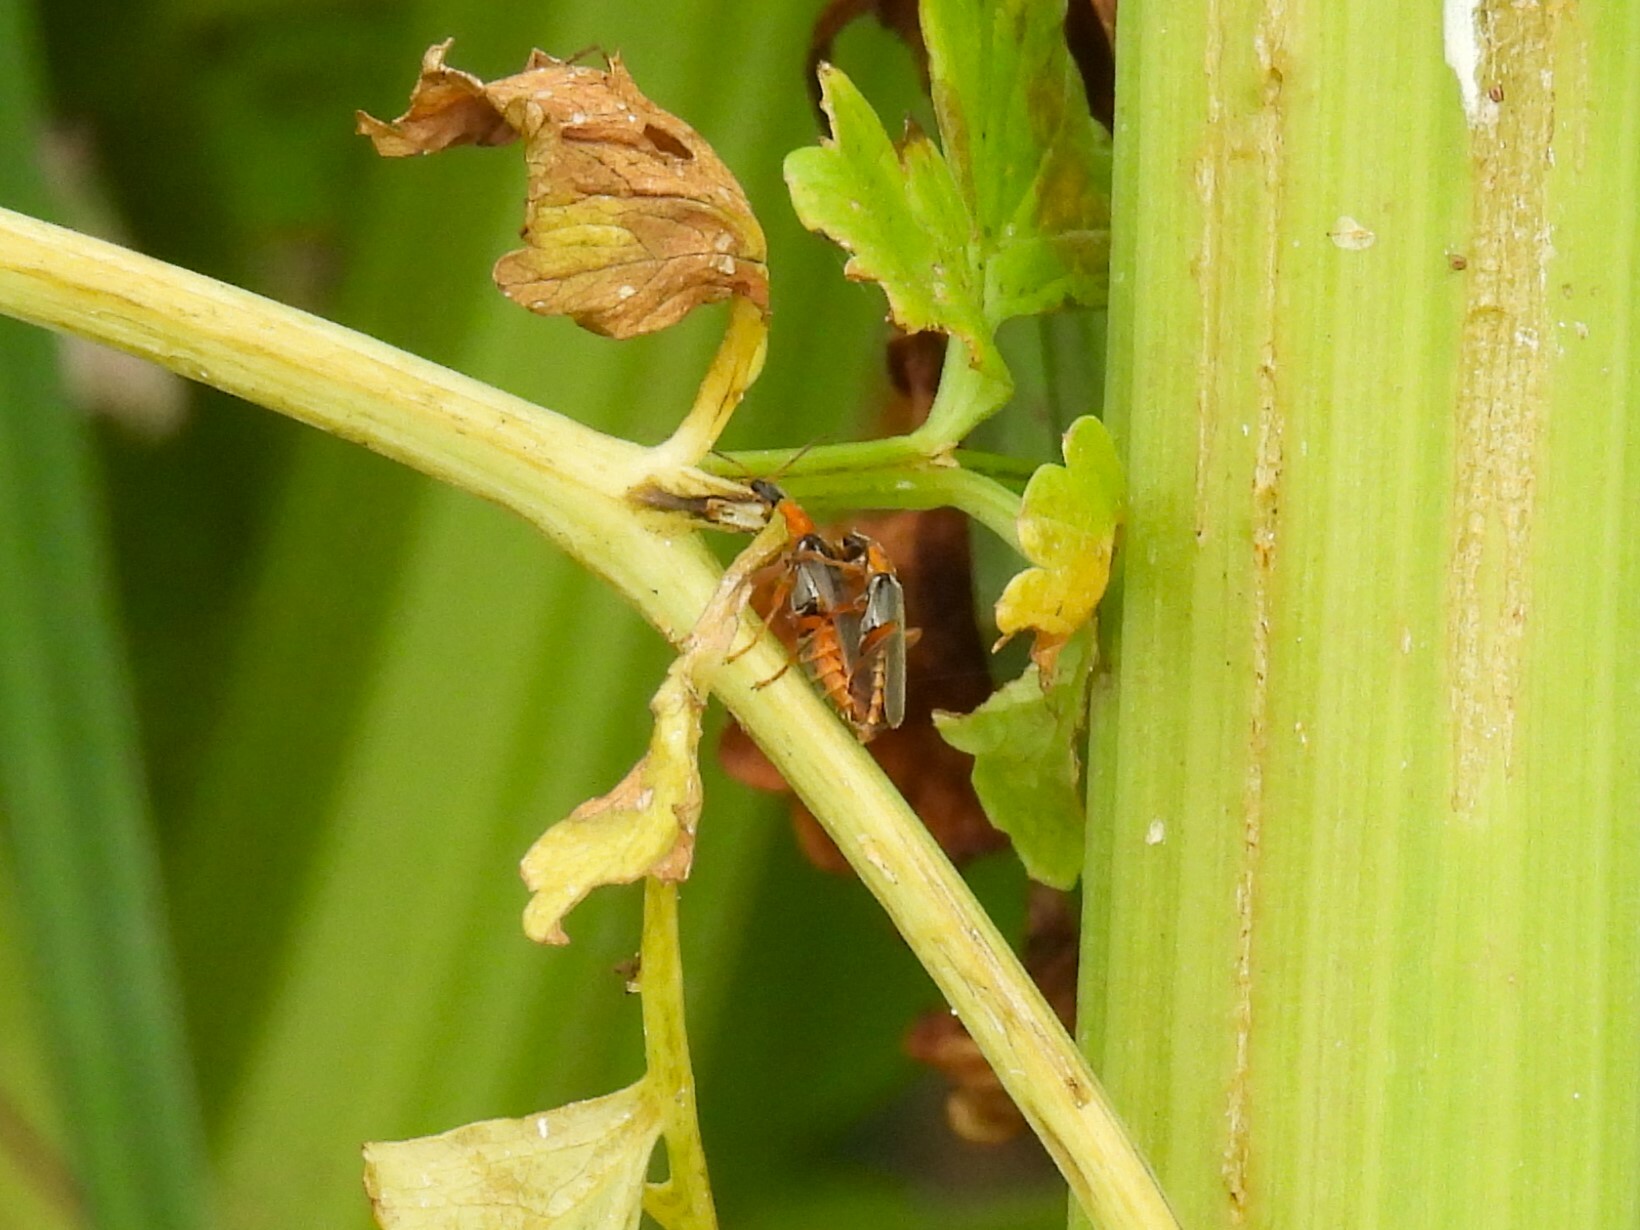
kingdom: Animalia
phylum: Arthropoda
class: Insecta
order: Coleoptera
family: Cantharidae
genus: Cantharis
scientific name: Cantharis lateralis
